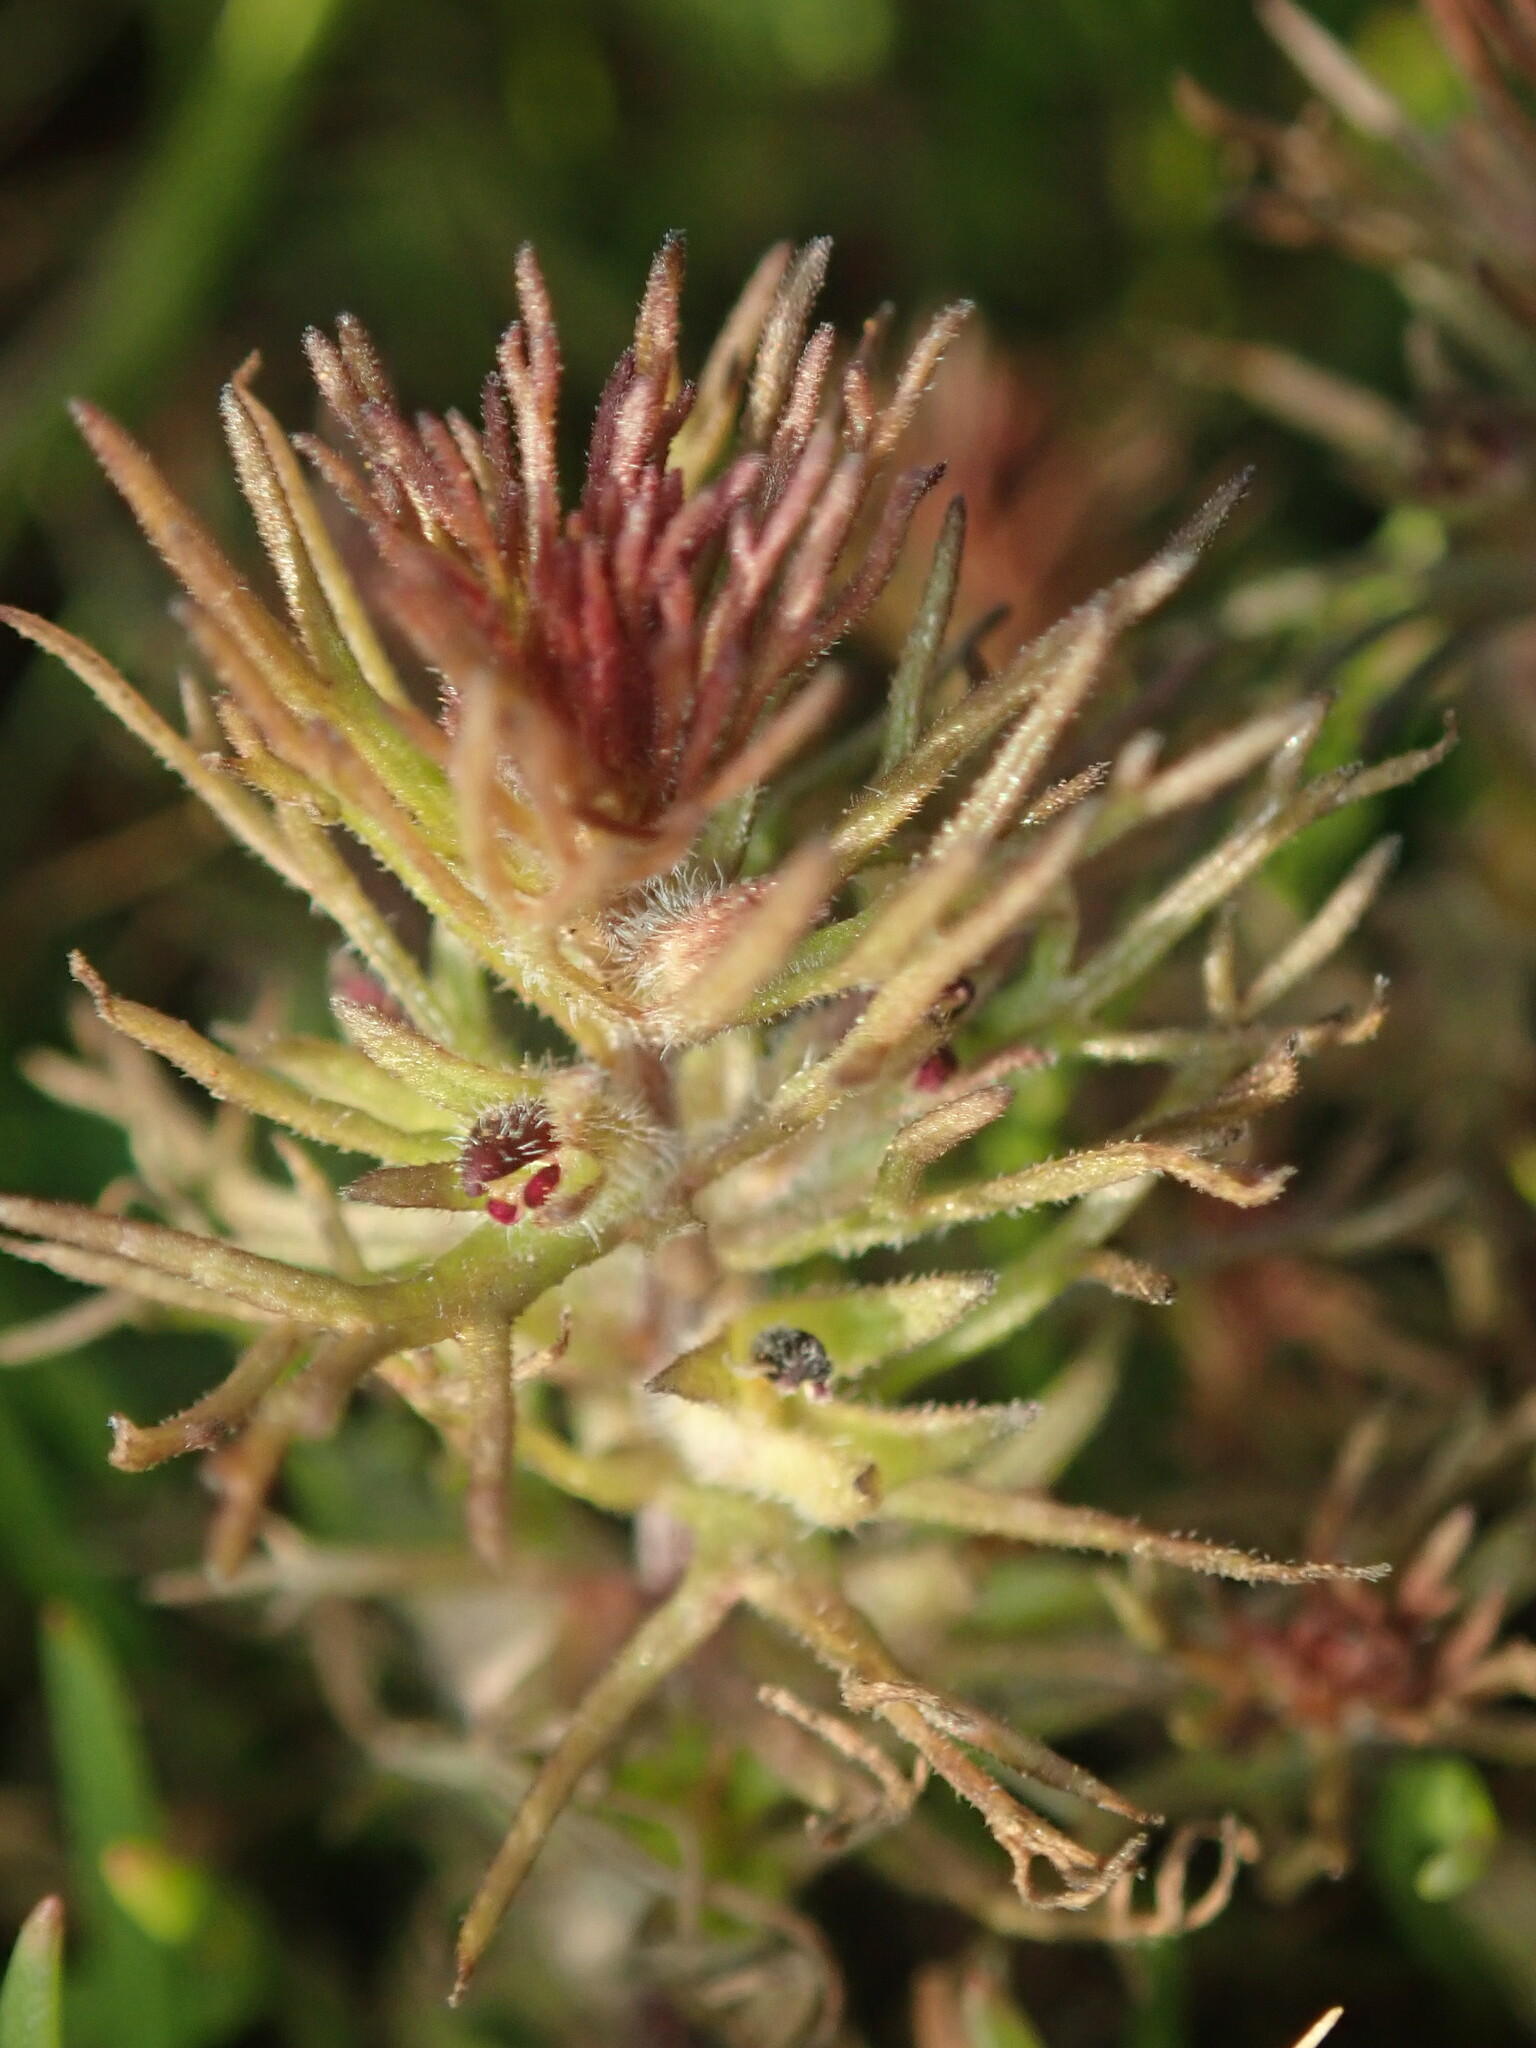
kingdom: Plantae
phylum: Tracheophyta
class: Magnoliopsida
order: Lamiales
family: Orobanchaceae
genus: Triphysaria
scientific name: Triphysaria pusilla
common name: Dwarf false owl-clover
